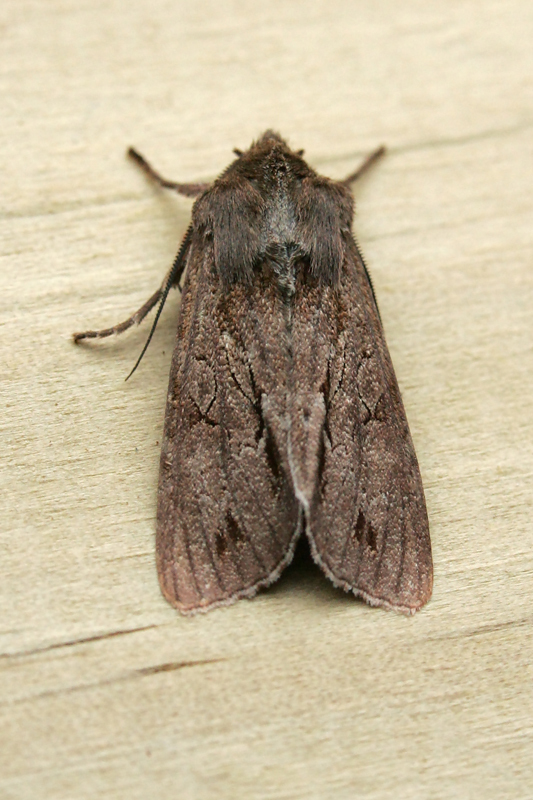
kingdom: Animalia
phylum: Arthropoda
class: Insecta
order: Lepidoptera
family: Noctuidae
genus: Ichneutica
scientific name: Ichneutica rufistriga
